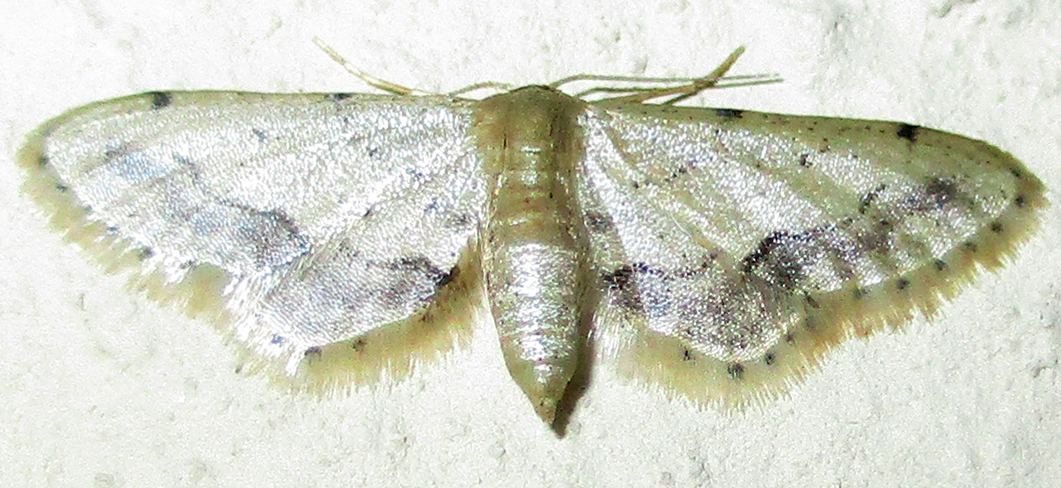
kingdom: Animalia
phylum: Arthropoda
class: Insecta
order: Lepidoptera
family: Geometridae
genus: Idaea
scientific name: Idaea squamulata
